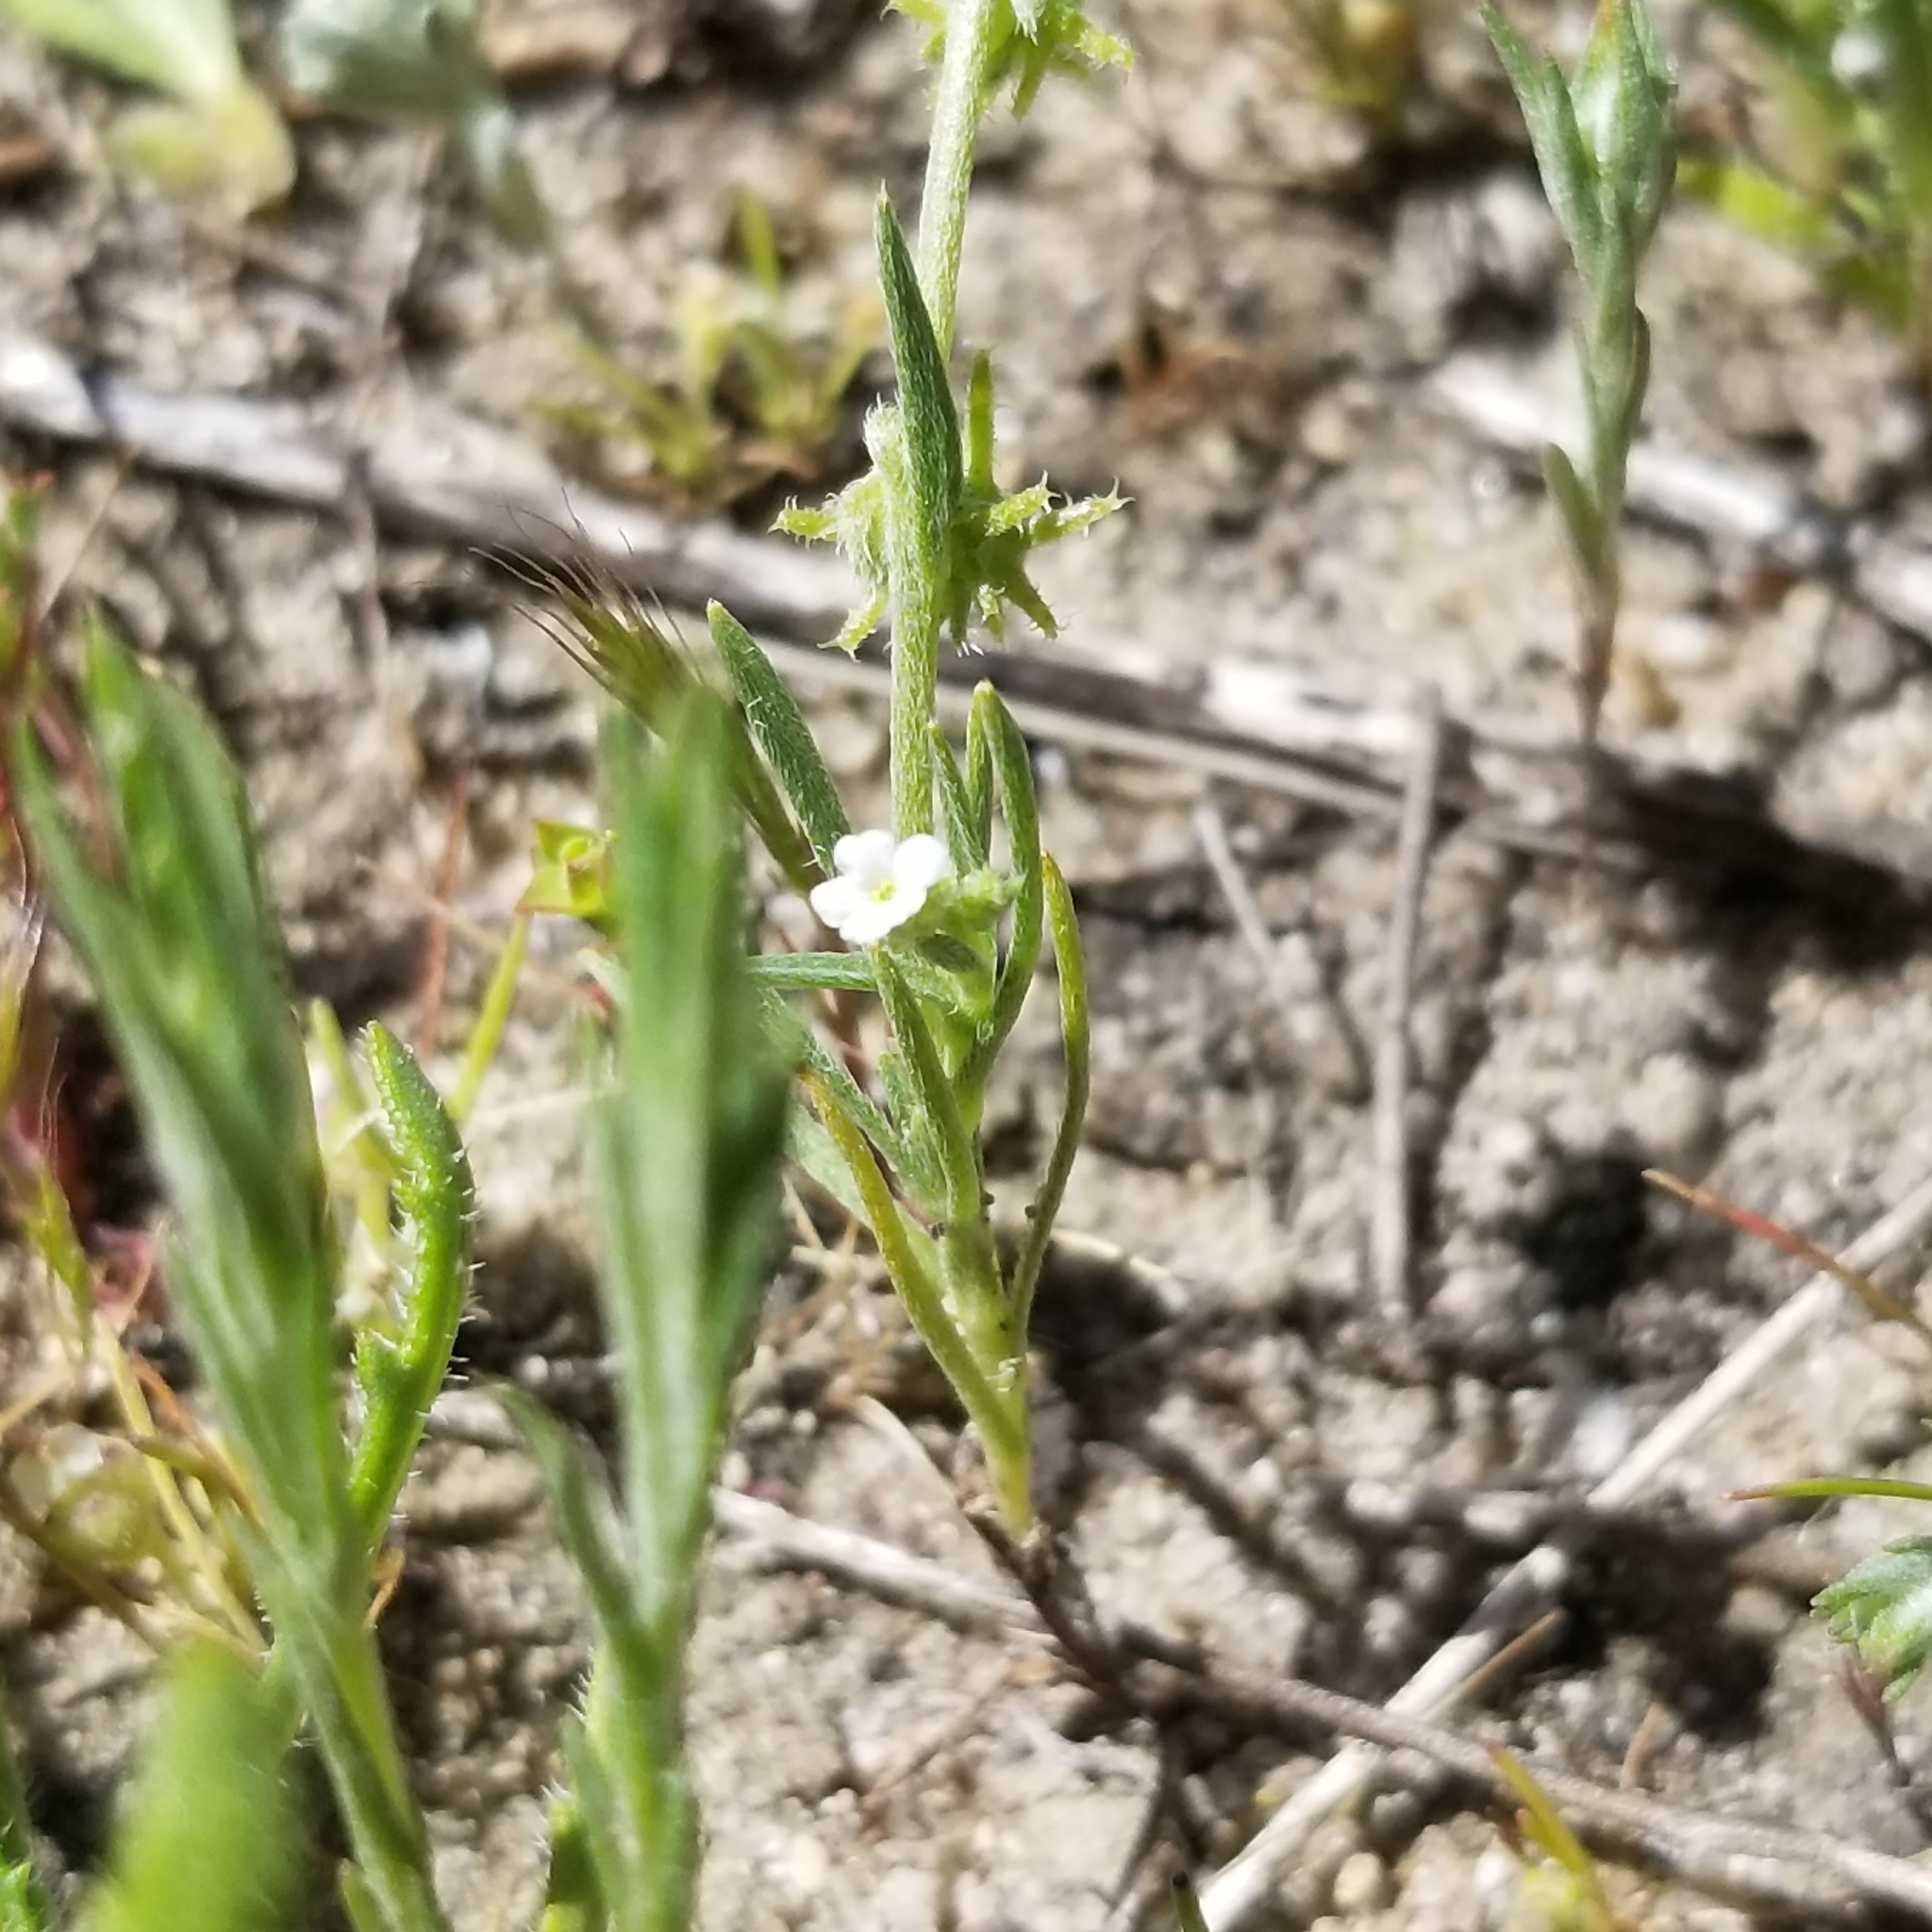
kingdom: Plantae
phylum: Tracheophyta
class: Magnoliopsida
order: Boraginales
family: Boraginaceae
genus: Harpagonella
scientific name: Harpagonella palmeri
